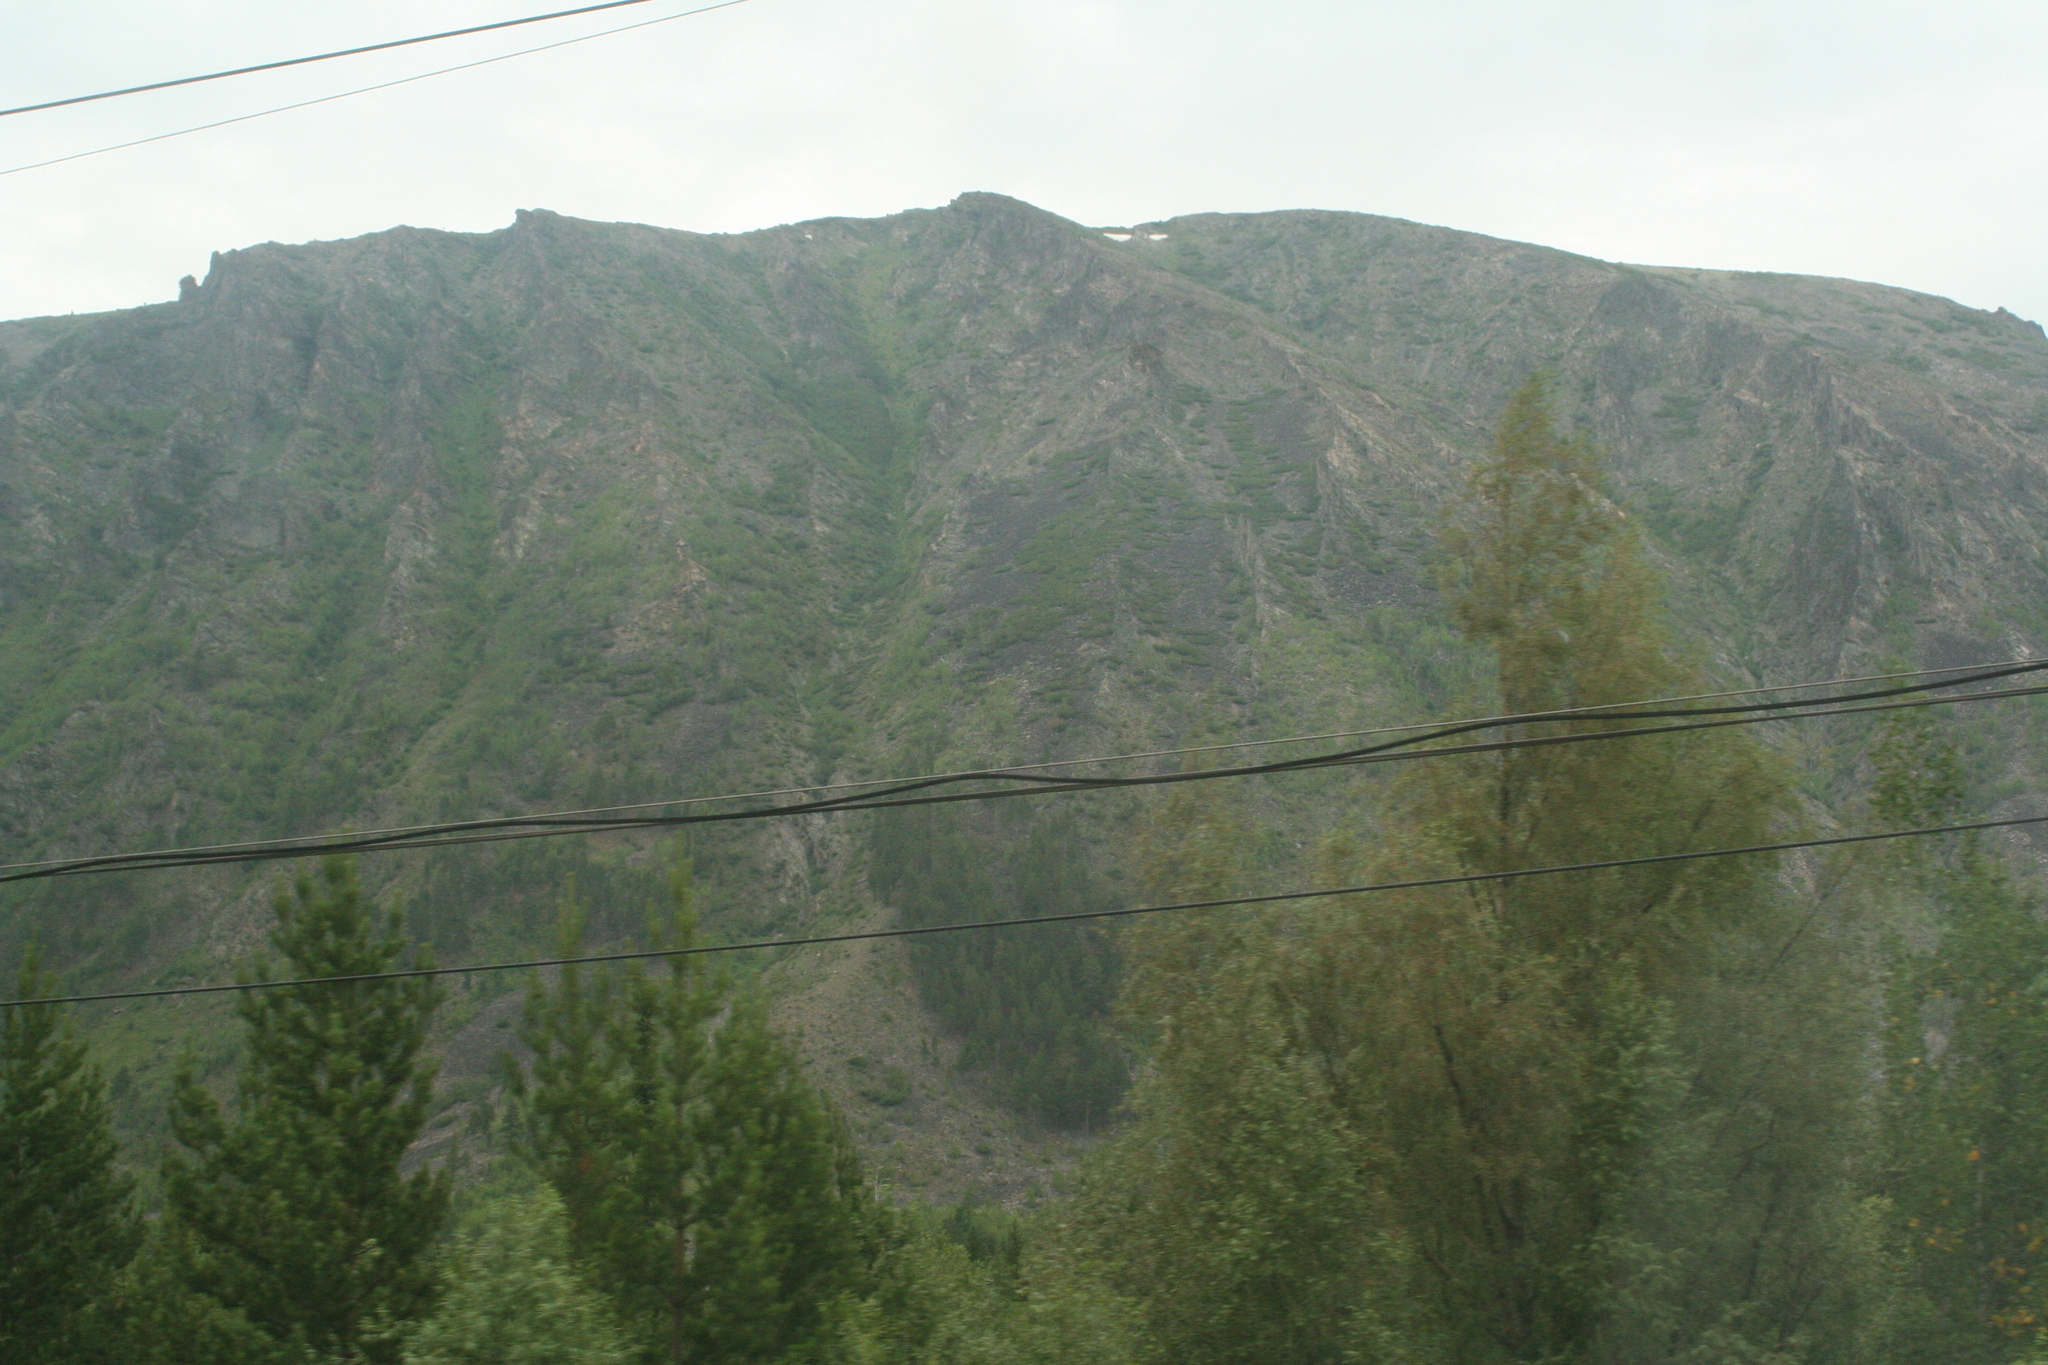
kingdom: Plantae
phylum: Tracheophyta
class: Pinopsida
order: Pinales
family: Pinaceae
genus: Pinus
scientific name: Pinus sylvestris
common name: Scots pine
